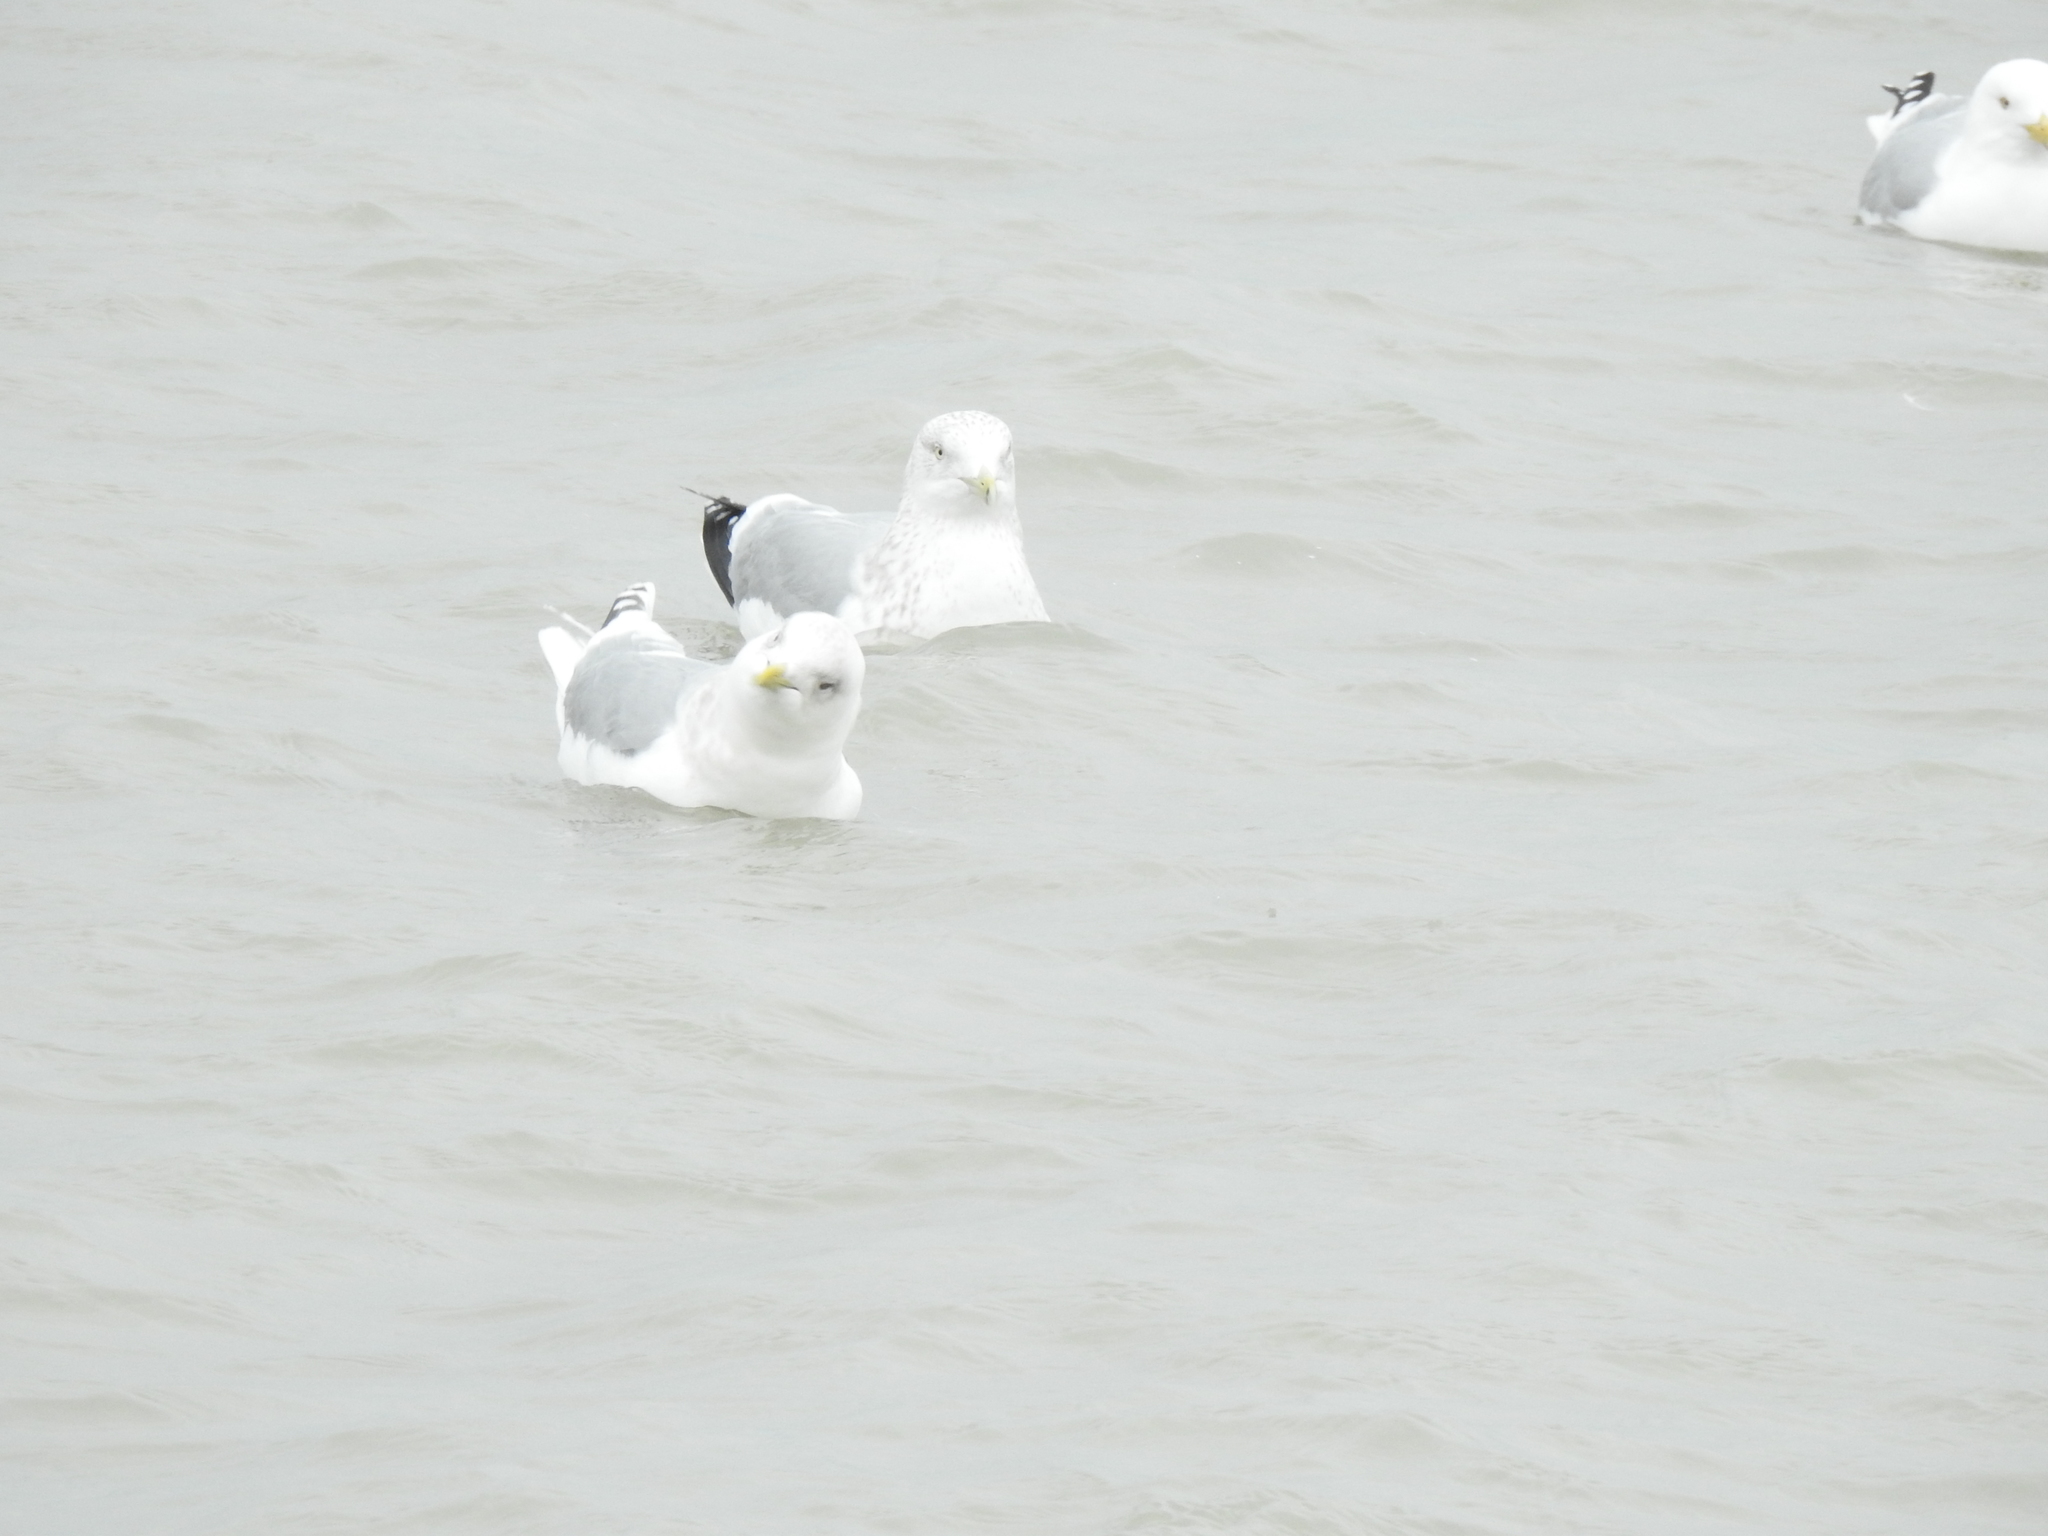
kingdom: Animalia
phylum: Chordata
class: Aves
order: Charadriiformes
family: Laridae
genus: Larus
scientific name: Larus glaucoides
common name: Iceland gull
